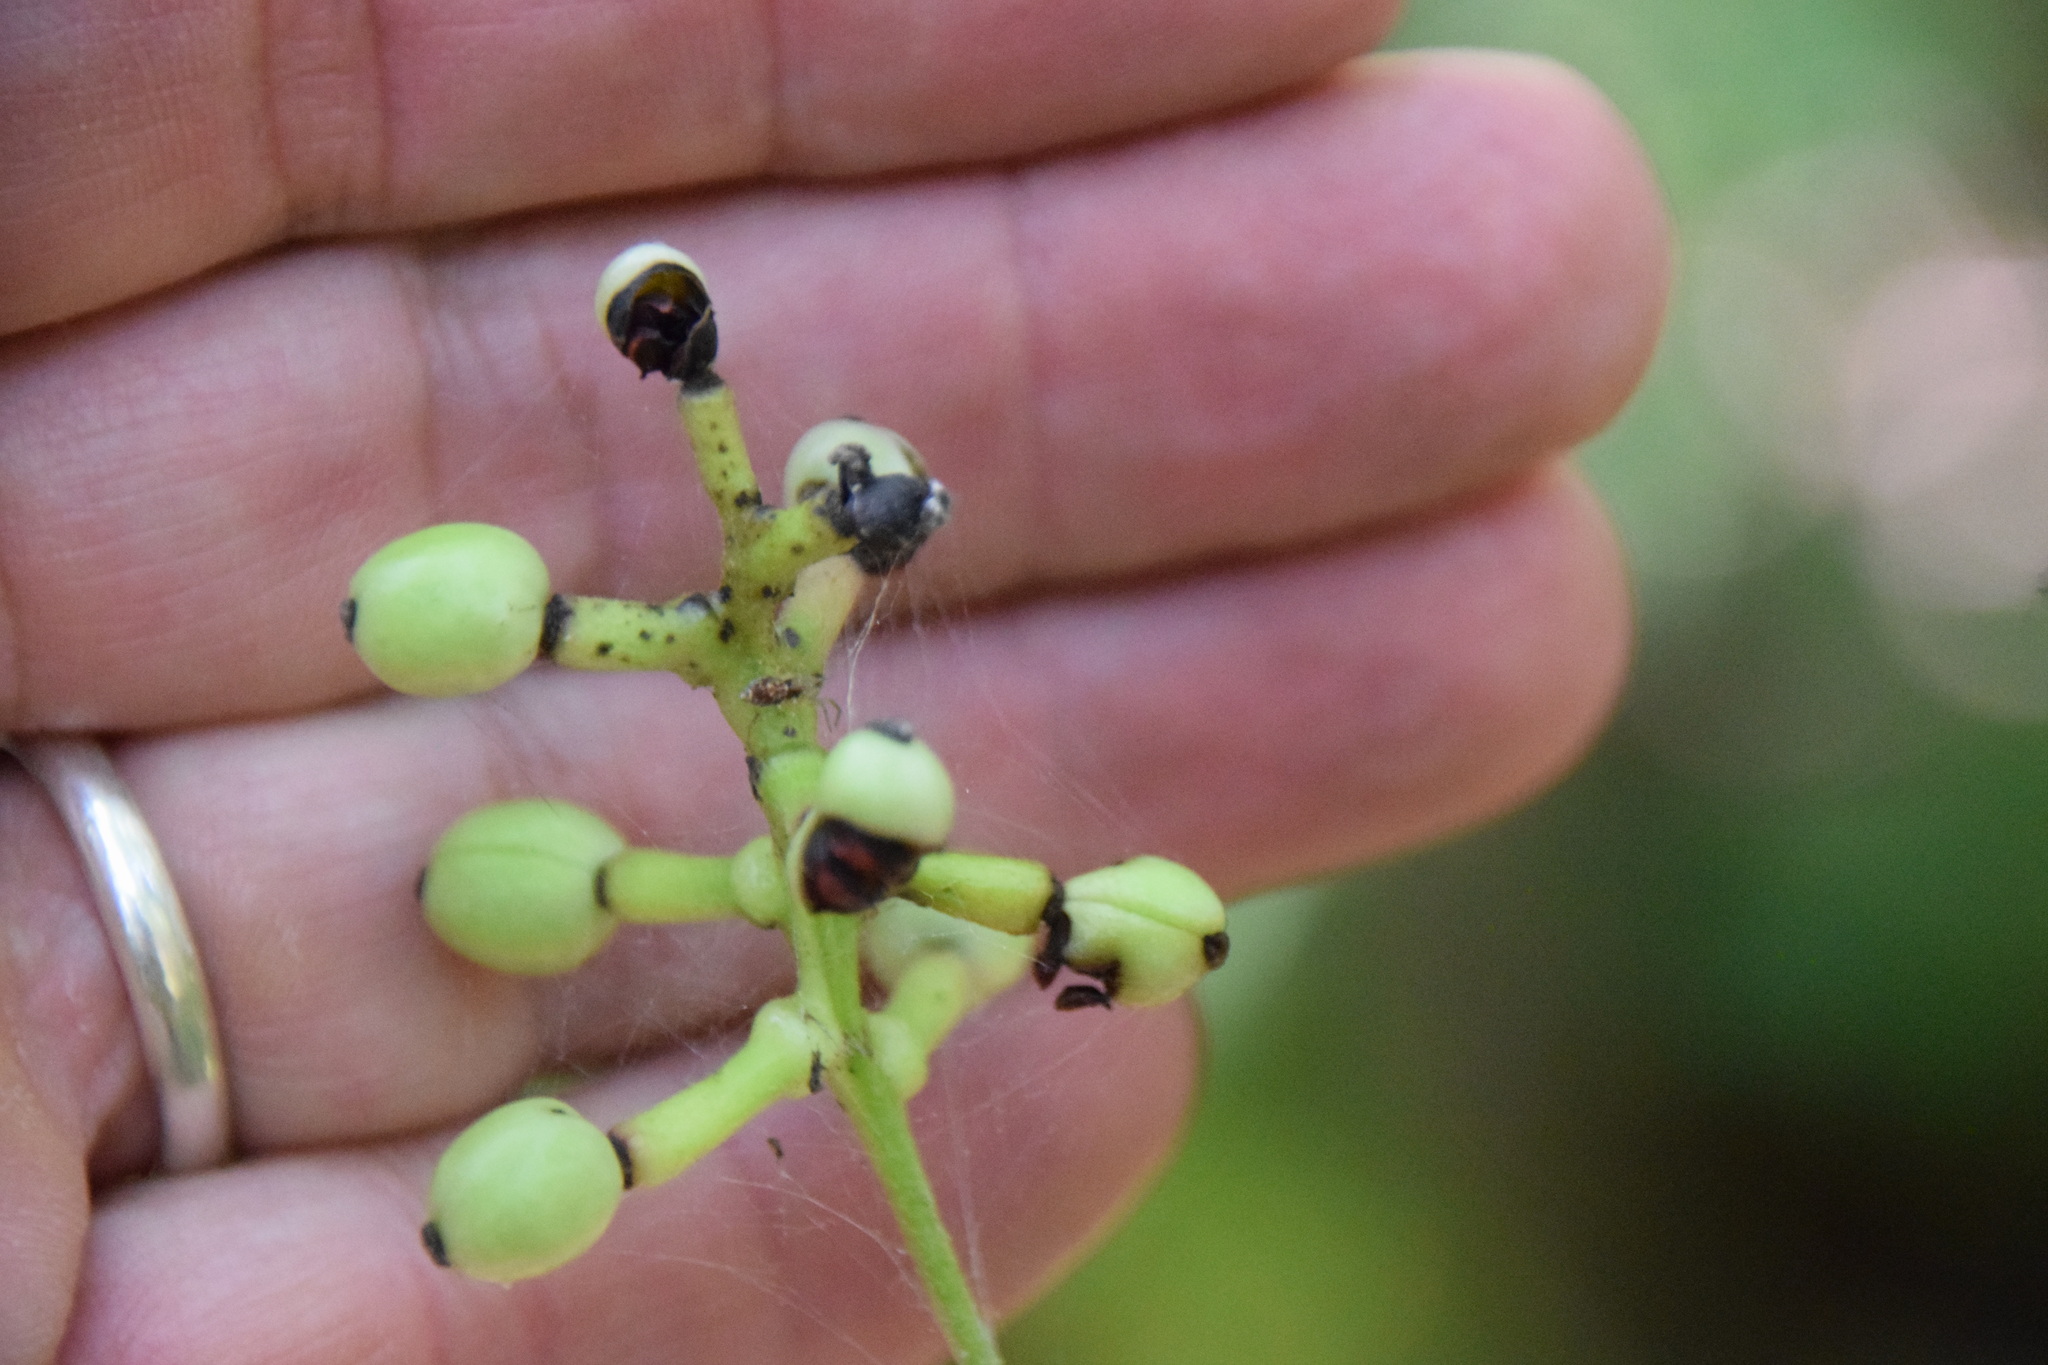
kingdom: Plantae
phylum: Tracheophyta
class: Magnoliopsida
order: Ranunculales
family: Ranunculaceae
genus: Actaea
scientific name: Actaea pachypoda
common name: Doll's-eyes
